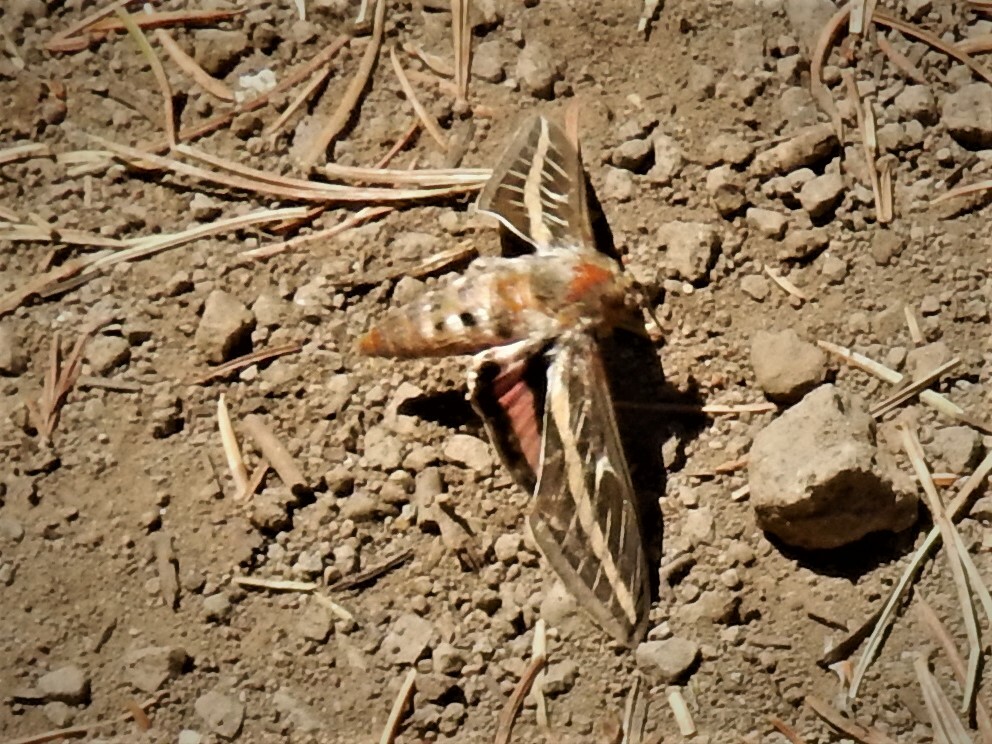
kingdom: Animalia
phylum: Arthropoda
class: Insecta
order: Lepidoptera
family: Sphingidae
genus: Hyles
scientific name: Hyles lineata
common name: White-lined sphinx
